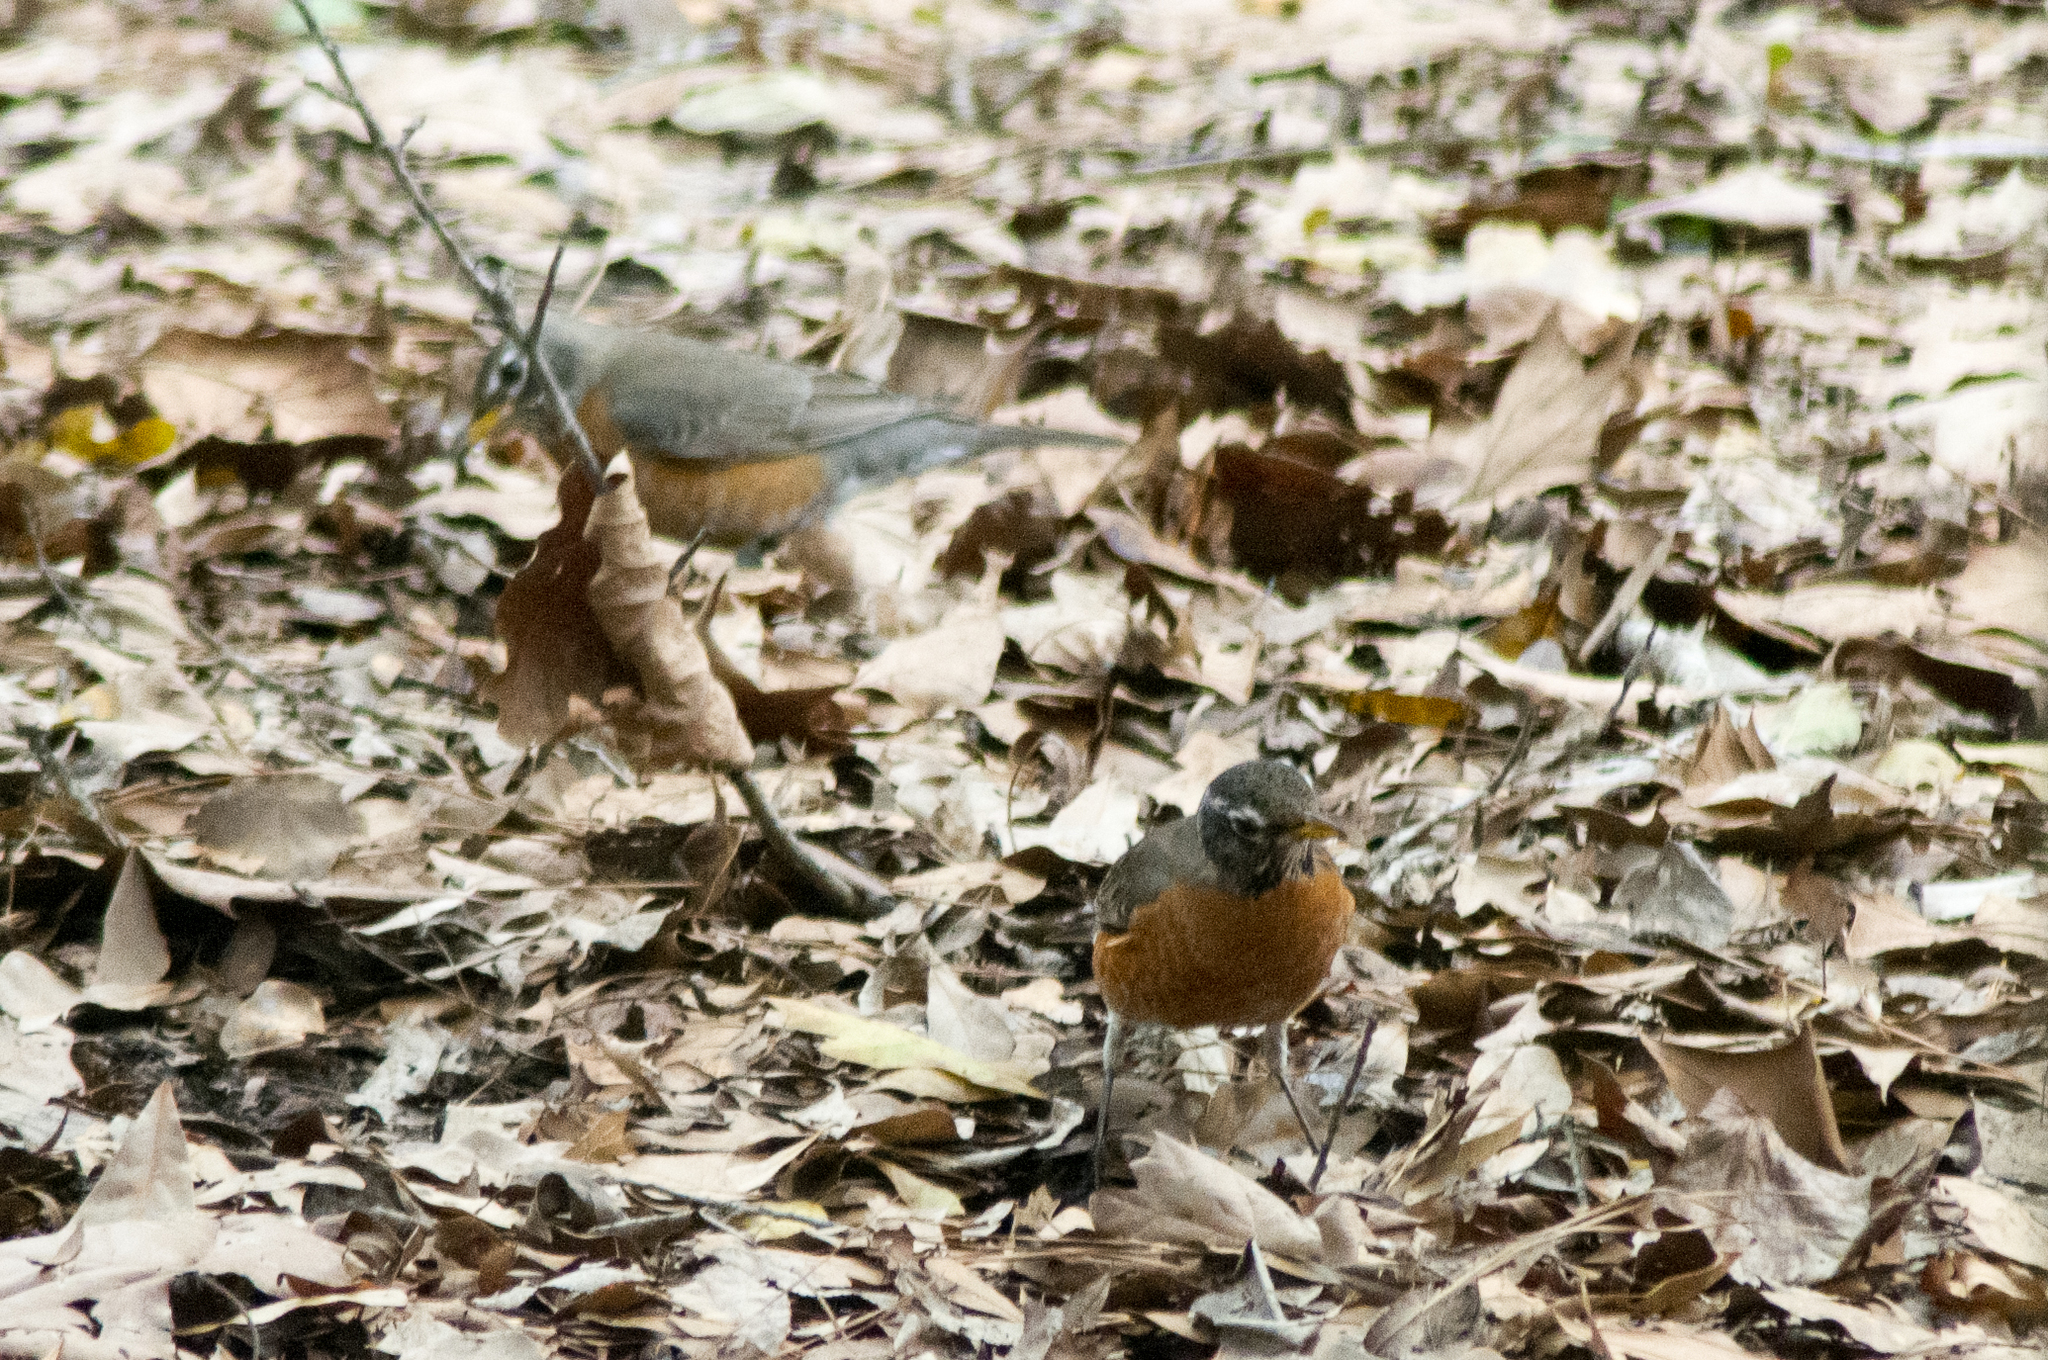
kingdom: Animalia
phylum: Chordata
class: Aves
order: Passeriformes
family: Turdidae
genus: Turdus
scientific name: Turdus migratorius
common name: American robin
